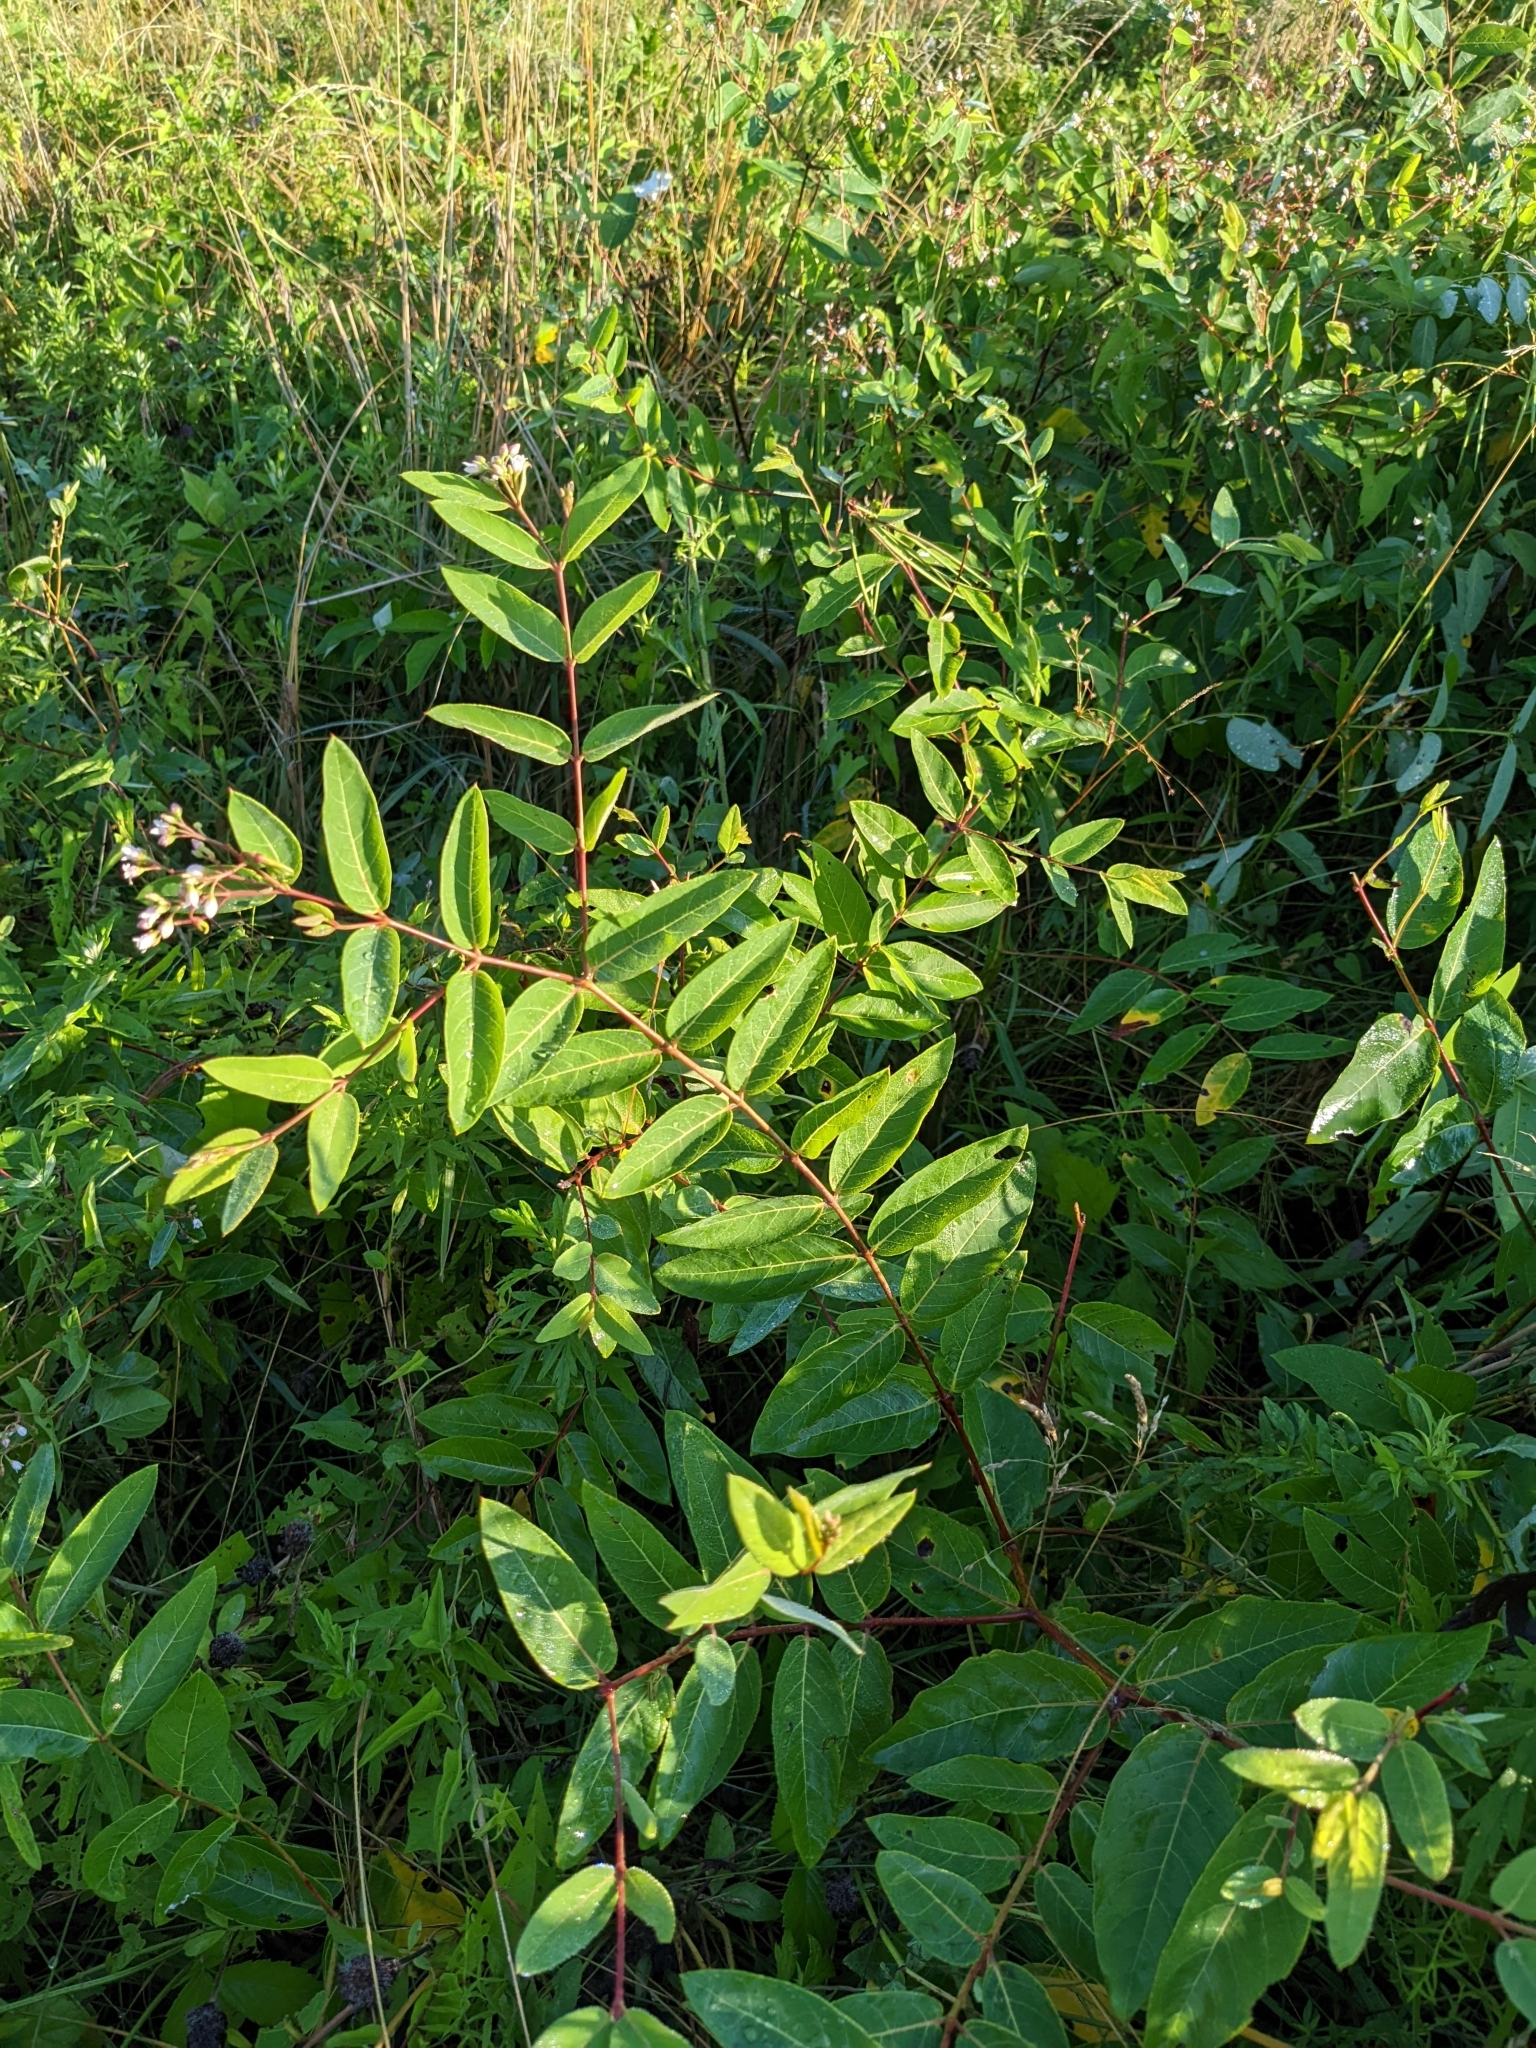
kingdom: Plantae
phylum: Tracheophyta
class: Magnoliopsida
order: Gentianales
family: Apocynaceae
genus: Apocynum
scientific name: Apocynum cannabinum
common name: Hemp dogbane
